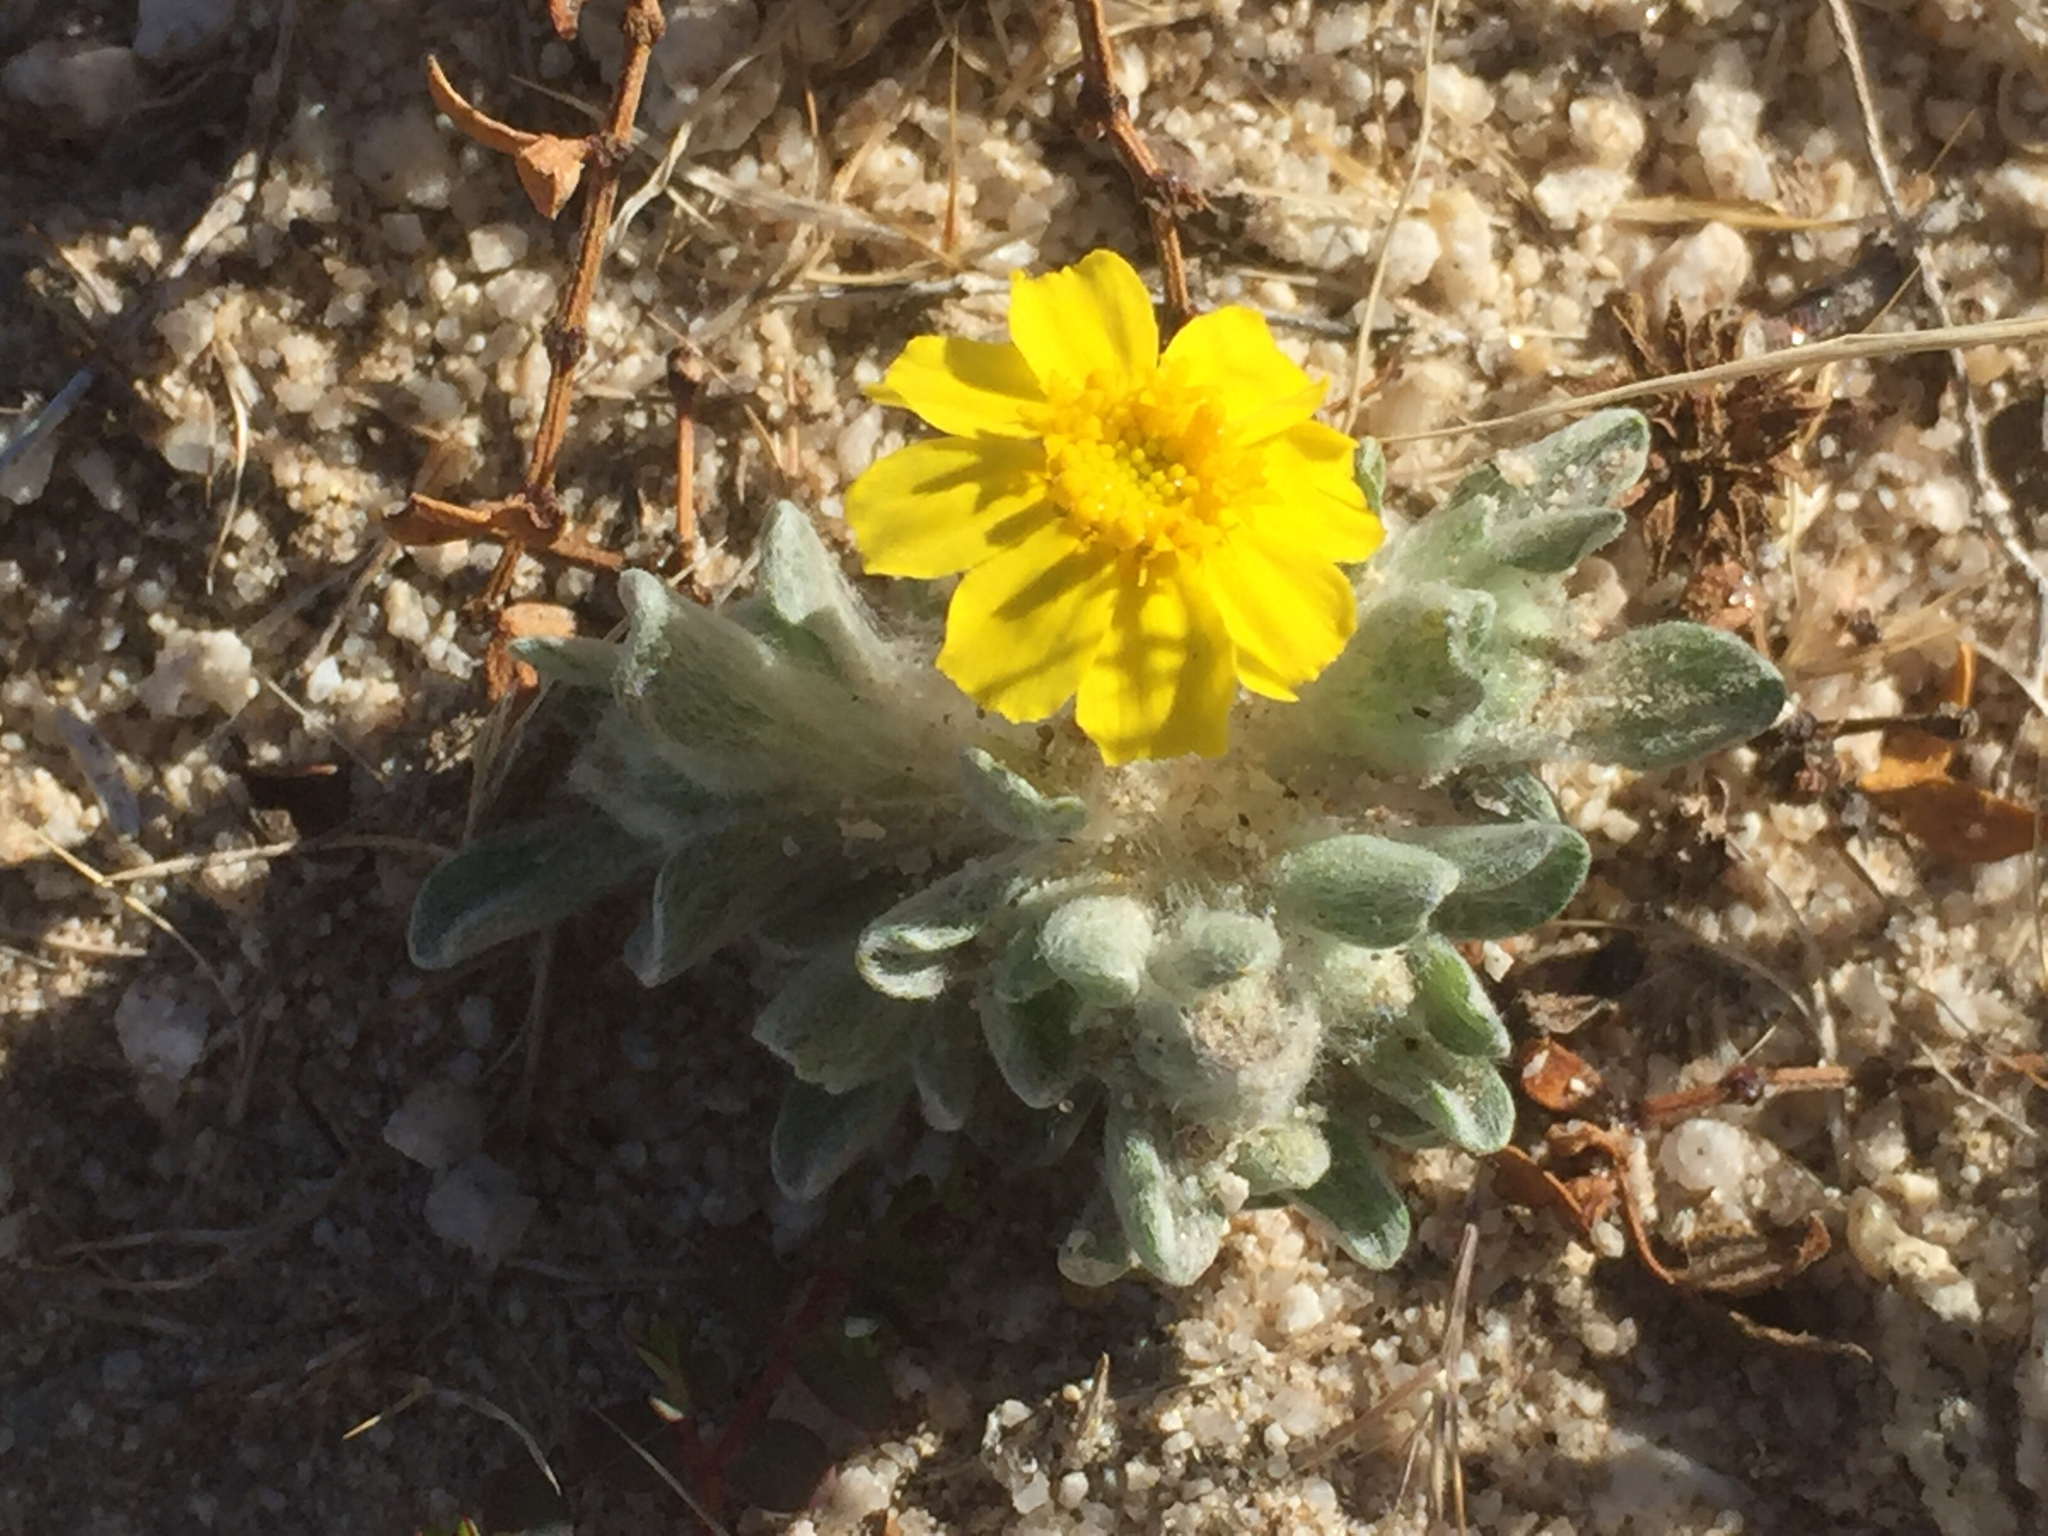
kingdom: Plantae
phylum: Tracheophyta
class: Magnoliopsida
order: Asterales
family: Asteraceae
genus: Eriophyllum
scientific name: Eriophyllum wallacei
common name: Wallace's woolly daisy
